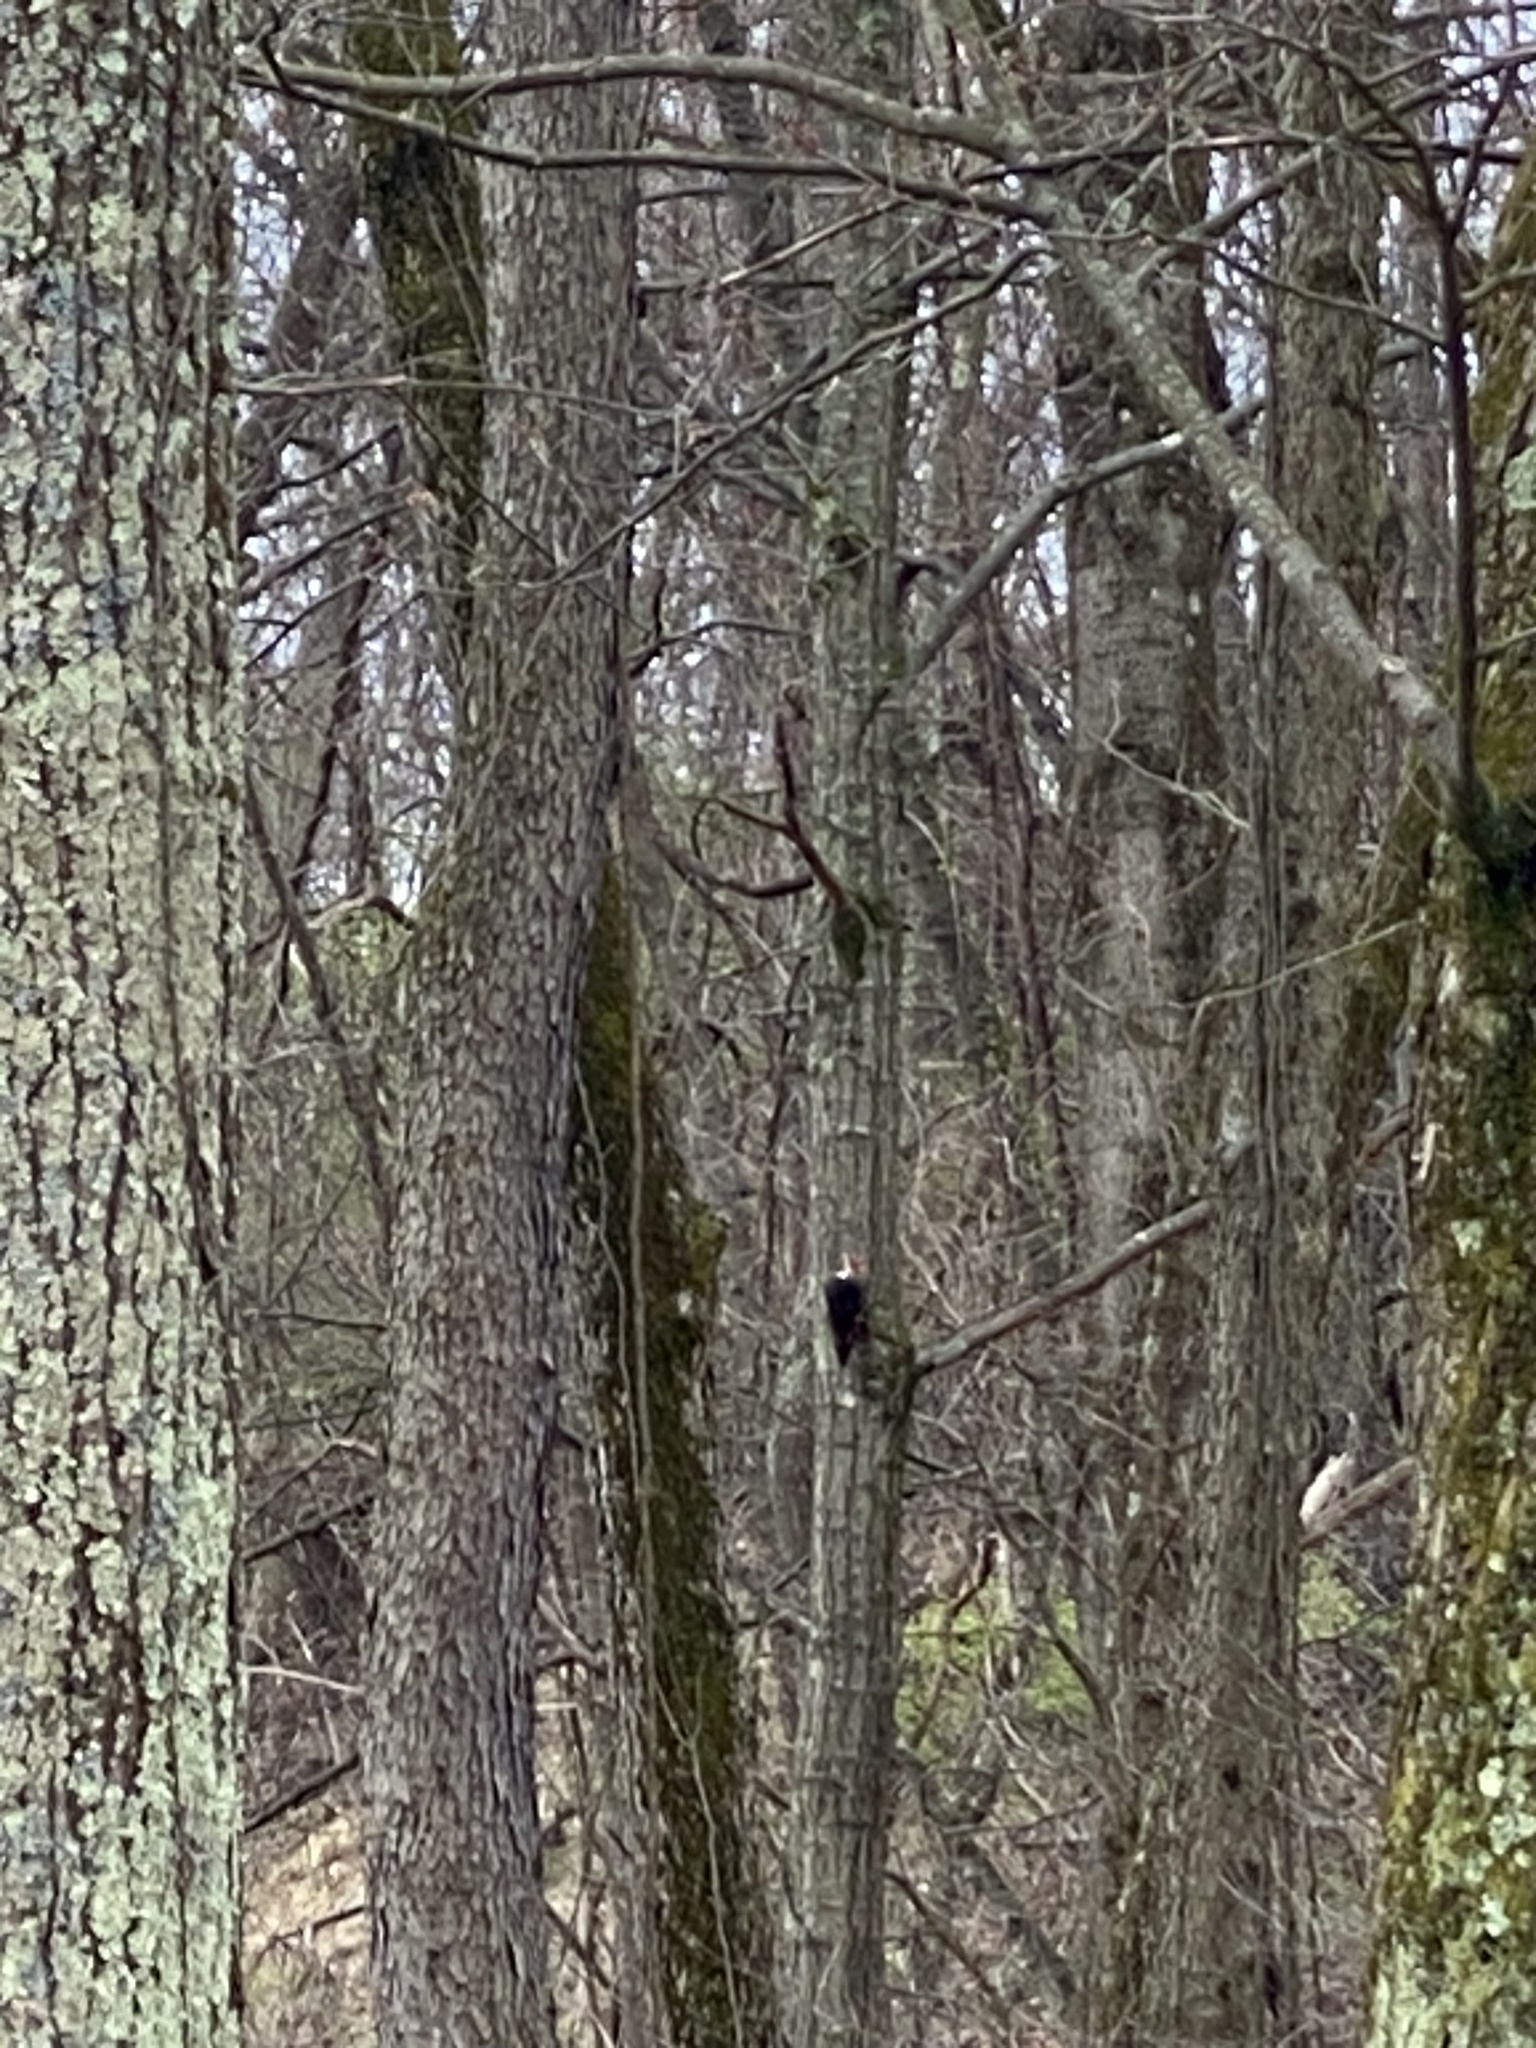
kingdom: Animalia
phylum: Chordata
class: Aves
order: Piciformes
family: Picidae
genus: Dryocopus
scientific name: Dryocopus pileatus
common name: Pileated woodpecker
